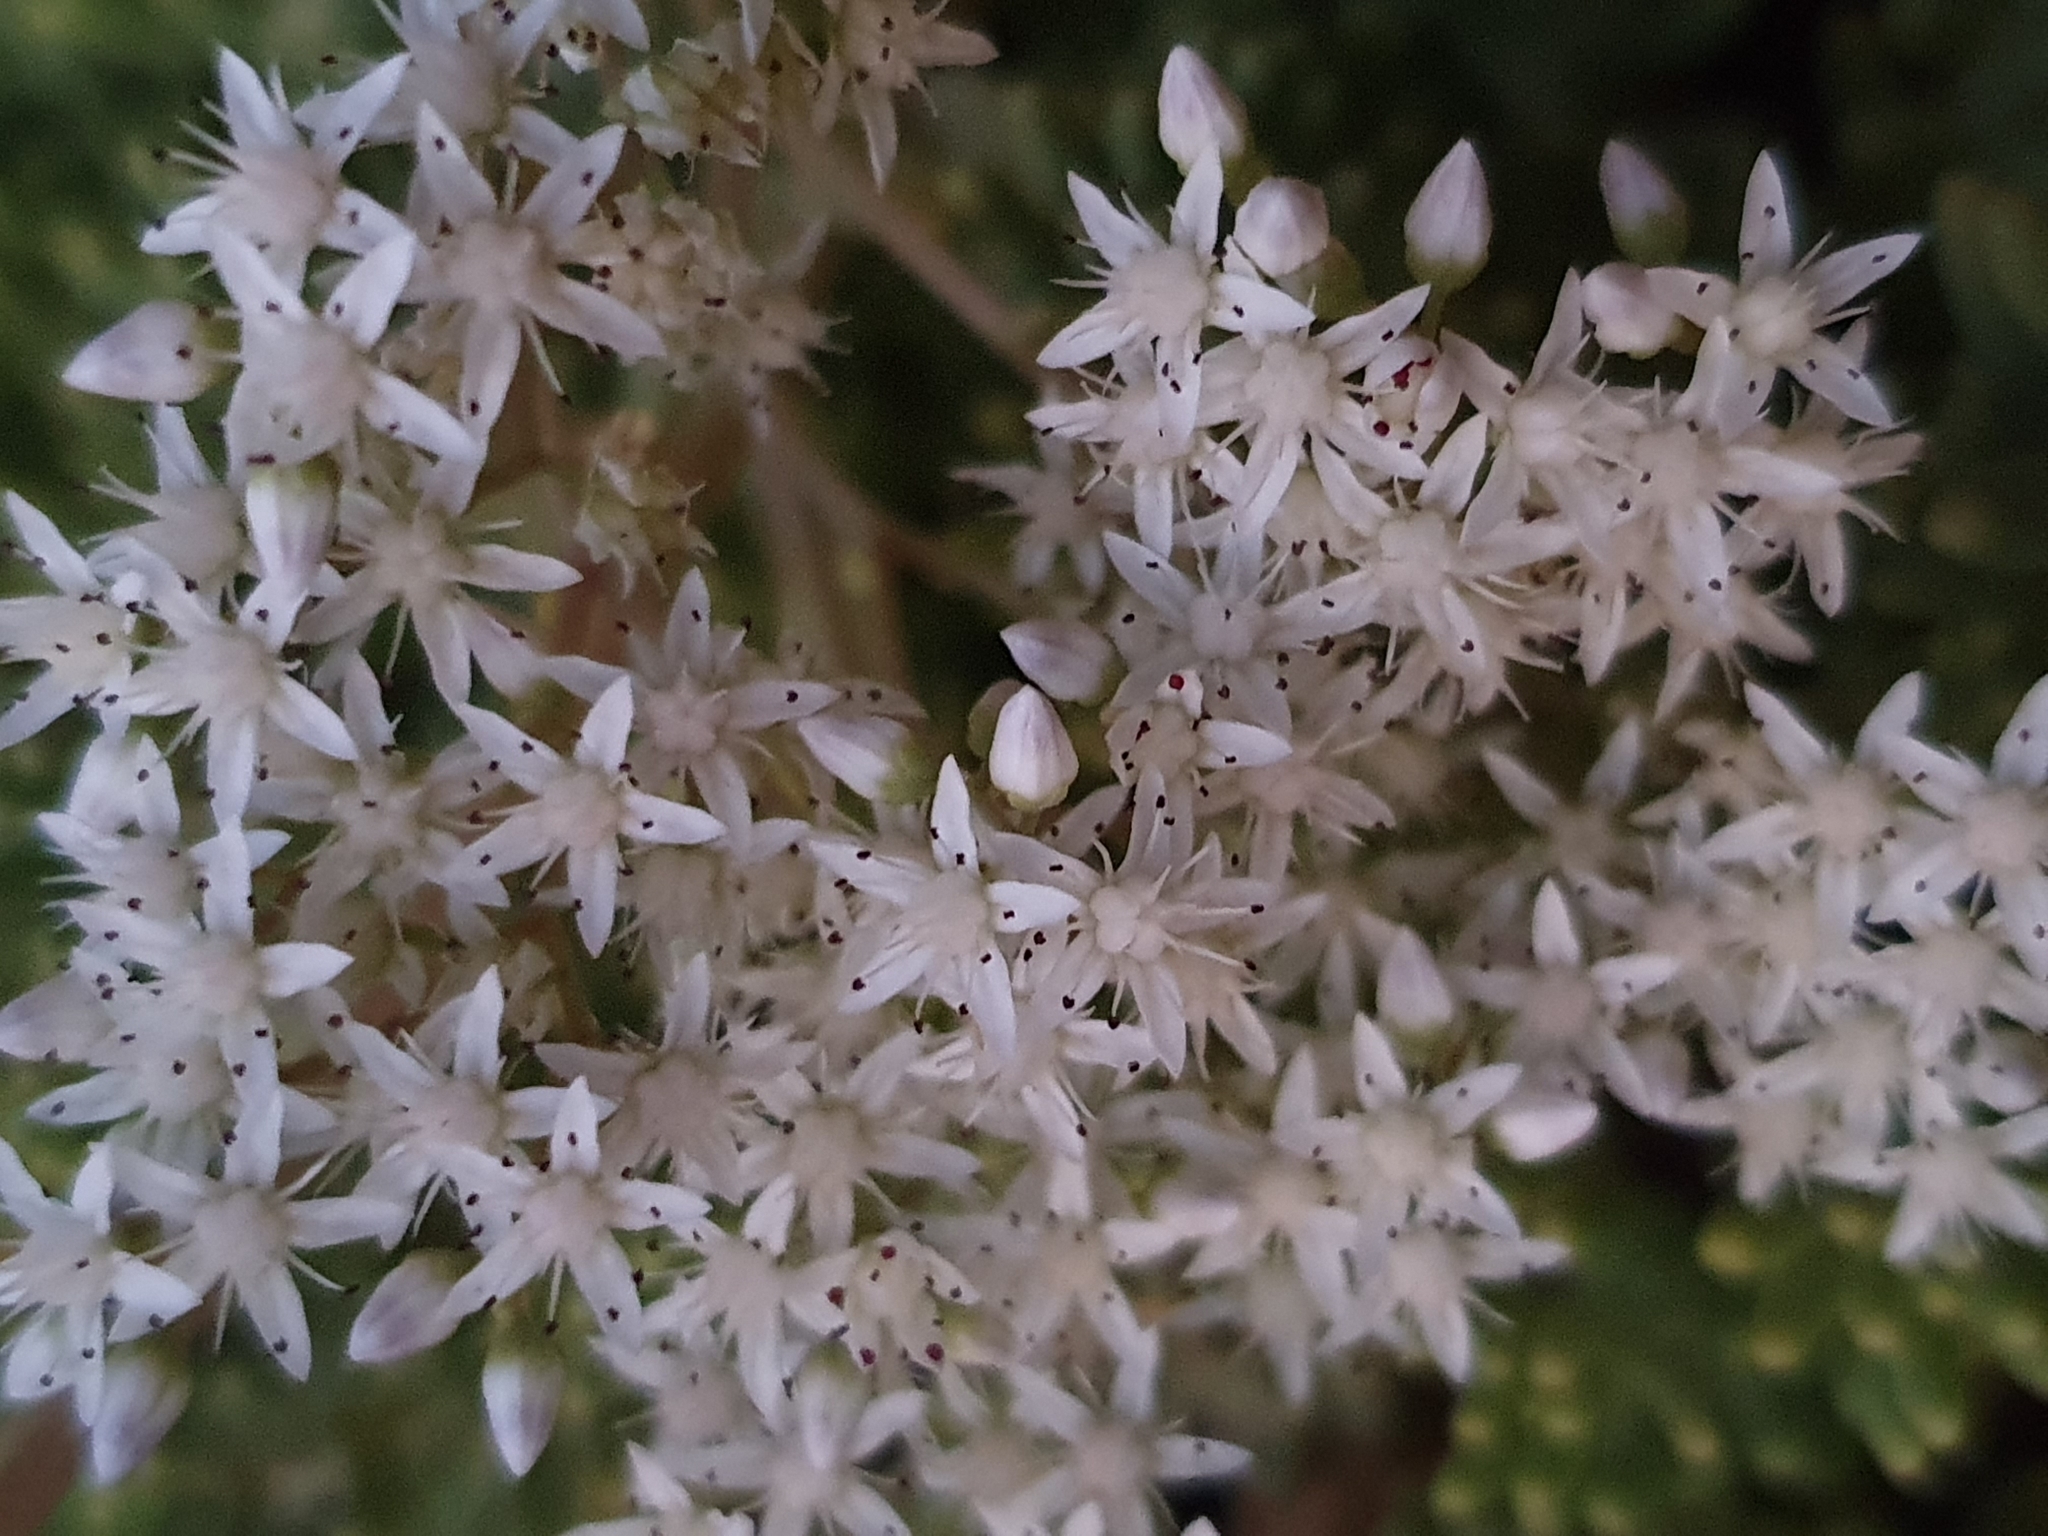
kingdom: Plantae
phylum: Tracheophyta
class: Magnoliopsida
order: Saxifragales
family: Crassulaceae
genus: Sedum
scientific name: Sedum album
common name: White stonecrop
